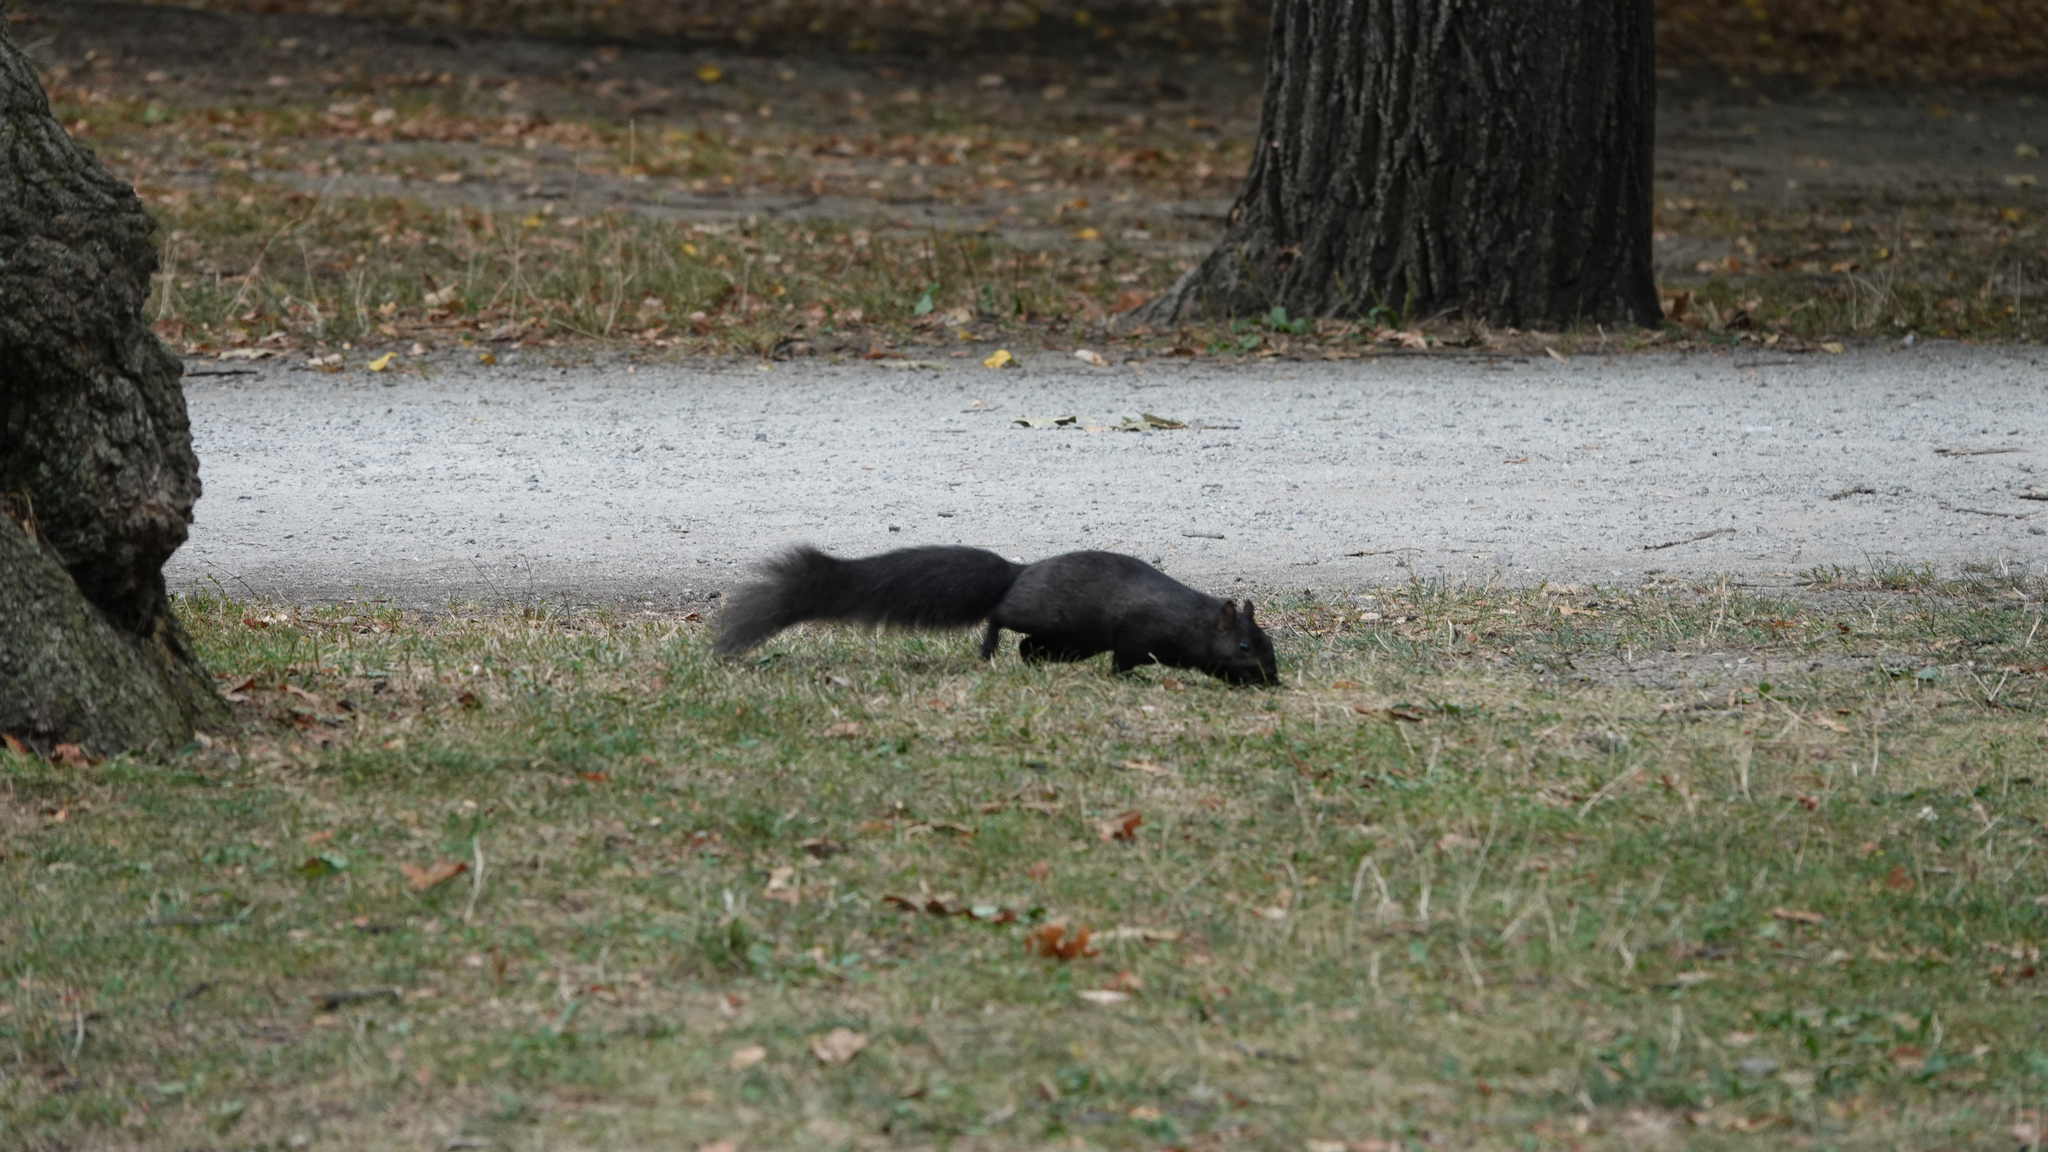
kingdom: Animalia
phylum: Chordata
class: Mammalia
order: Rodentia
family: Sciuridae
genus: Sciurus
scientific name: Sciurus carolinensis
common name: Eastern gray squirrel
